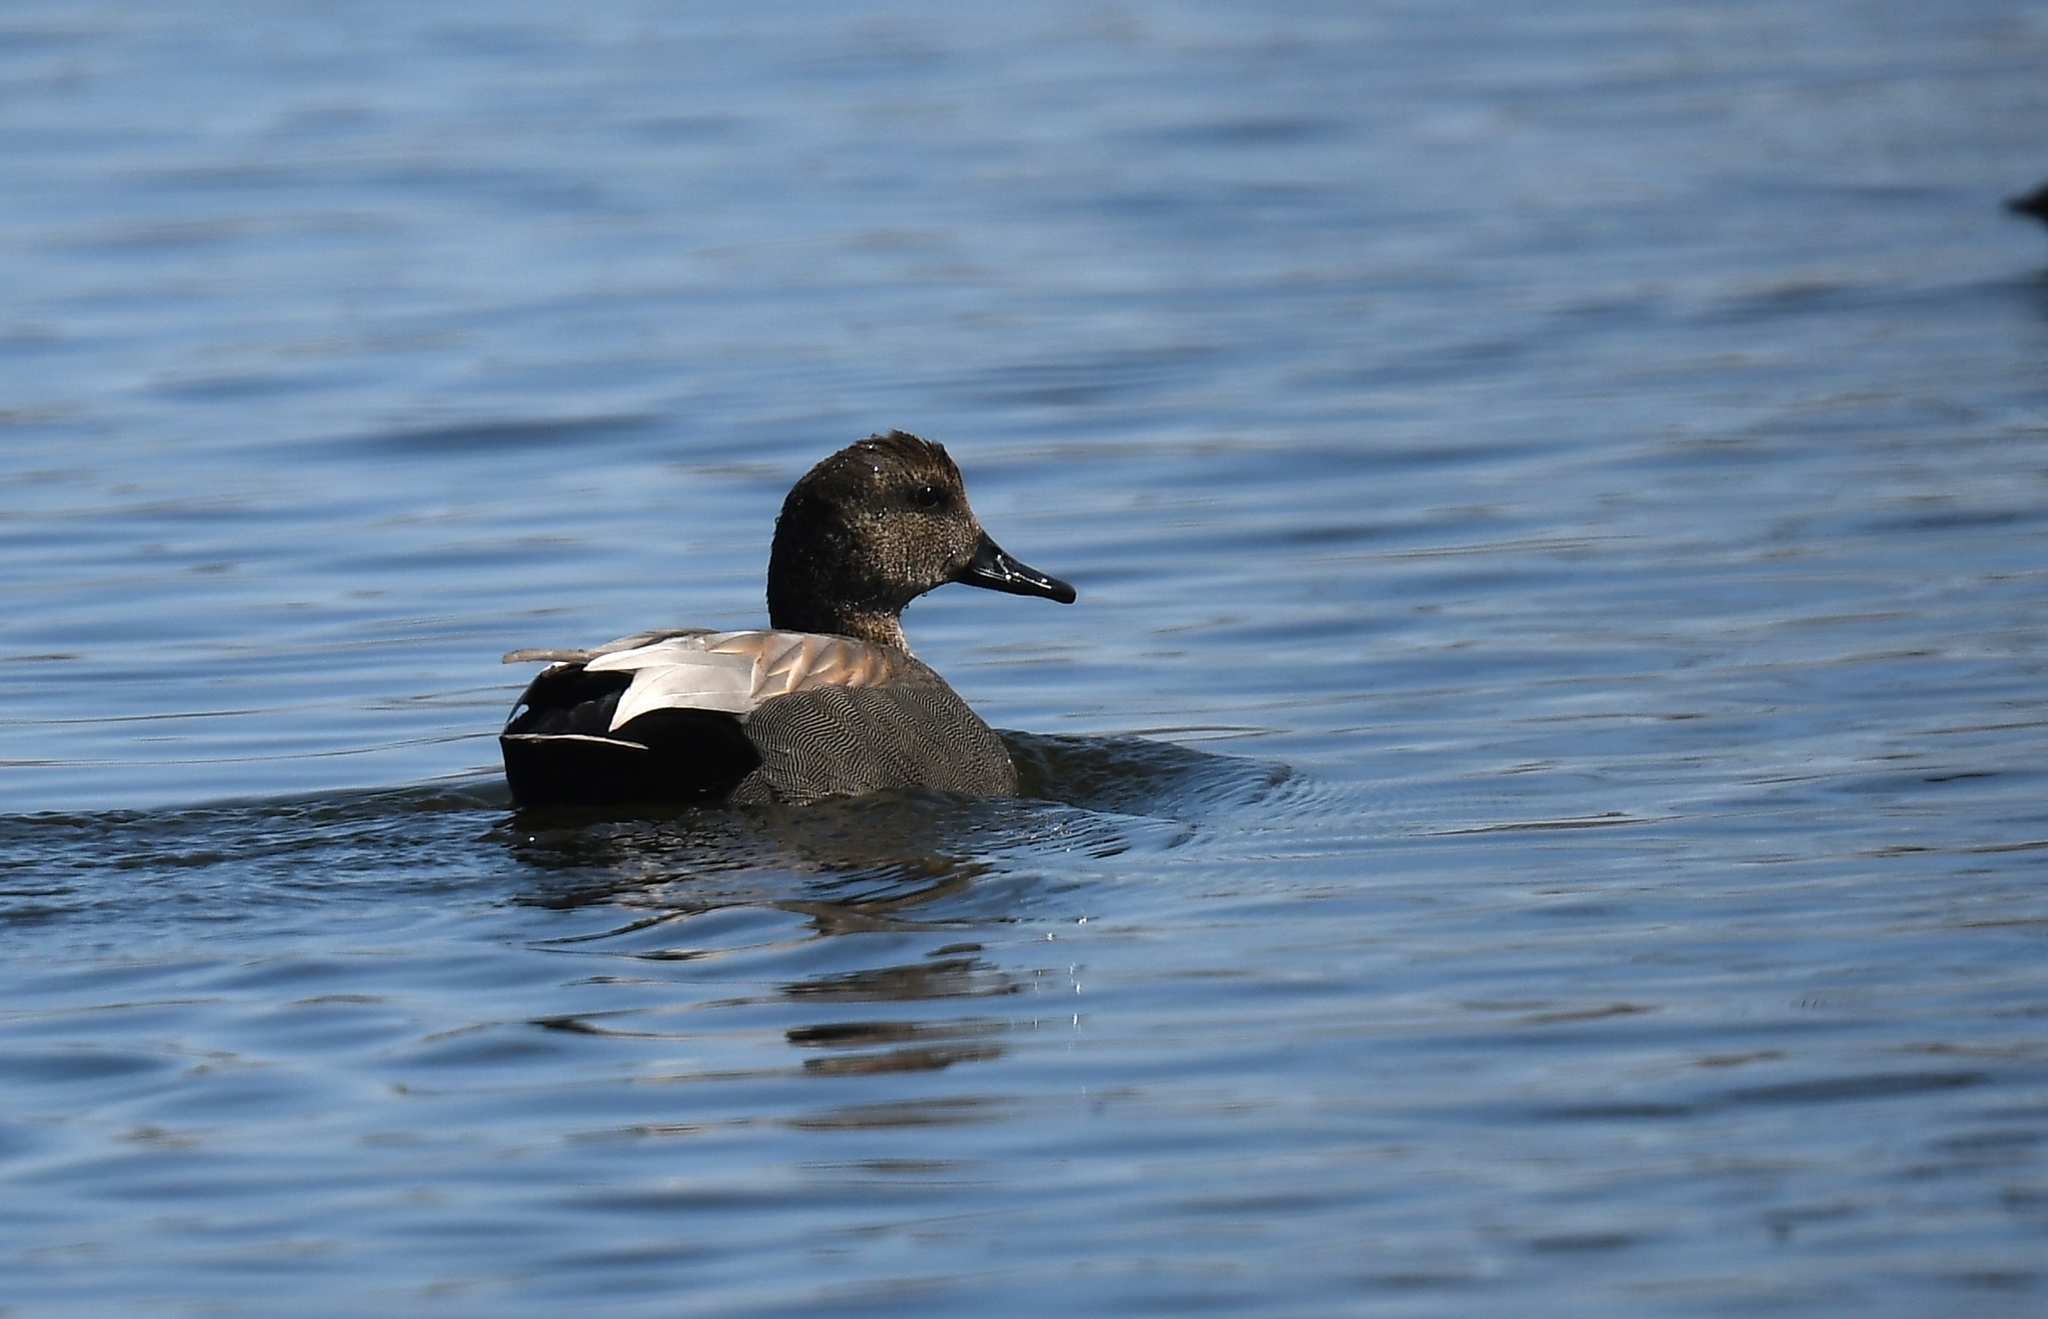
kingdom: Animalia
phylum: Chordata
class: Aves
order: Anseriformes
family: Anatidae
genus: Mareca
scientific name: Mareca strepera
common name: Gadwall
